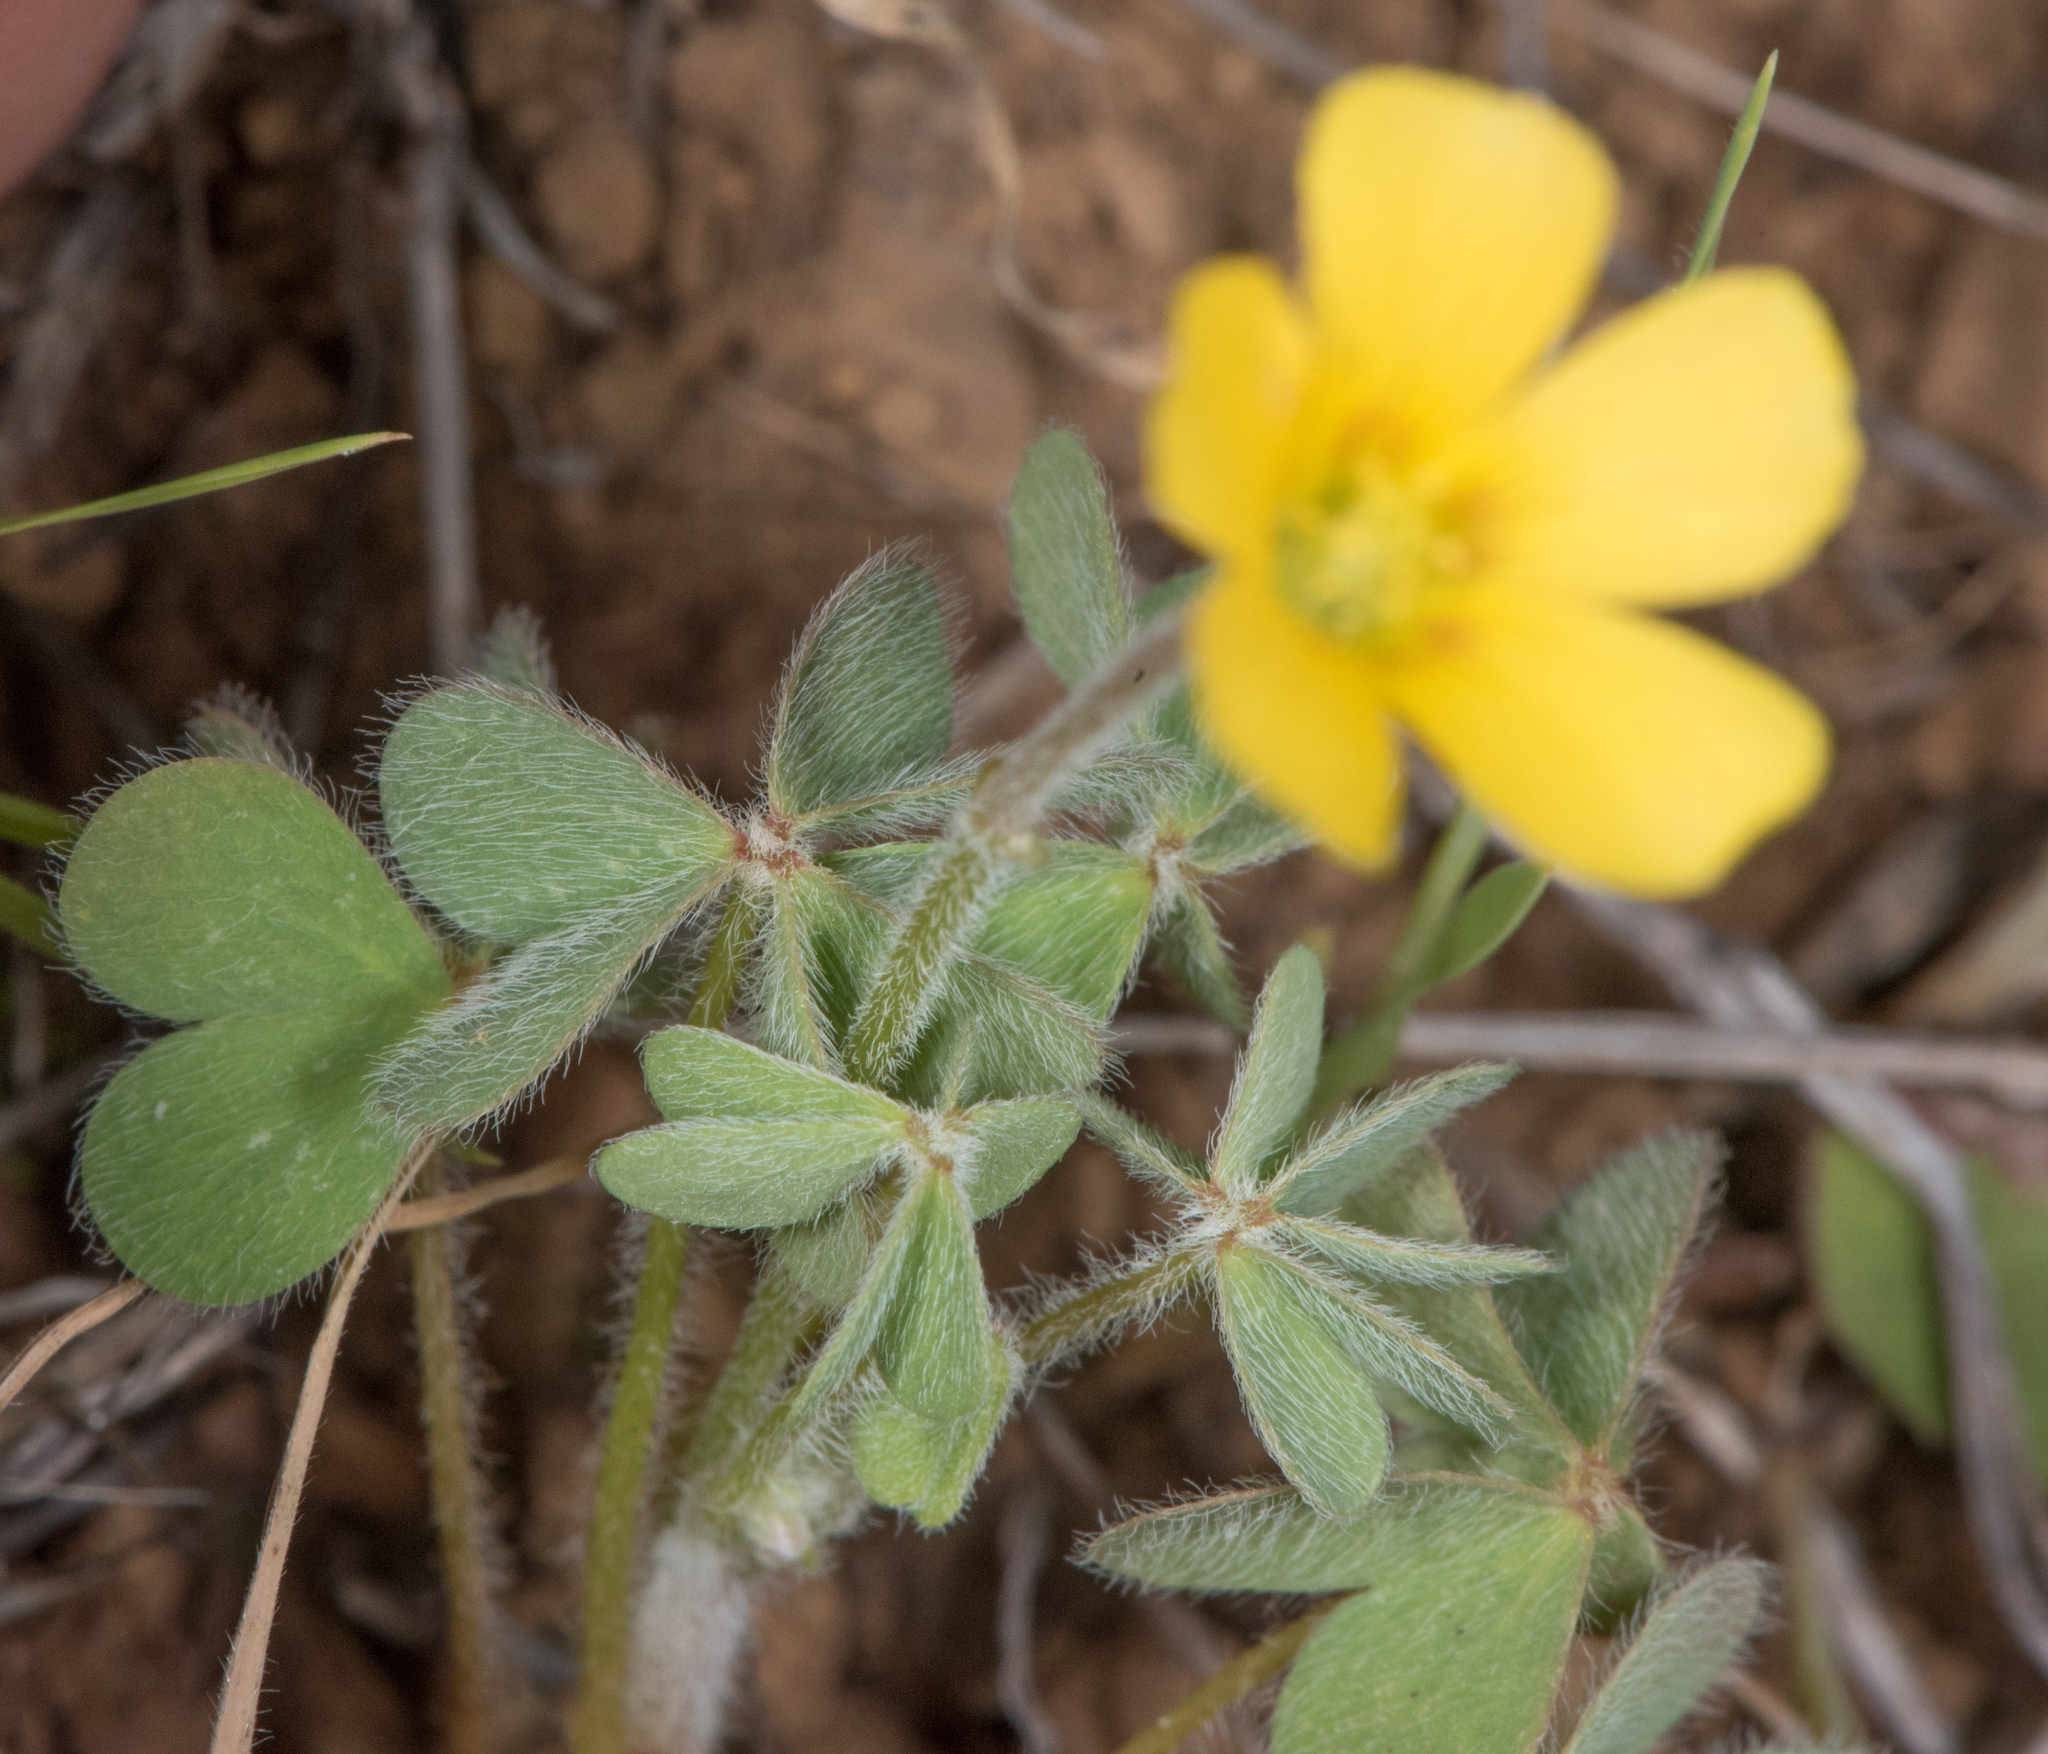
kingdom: Plantae
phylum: Tracheophyta
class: Magnoliopsida
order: Oxalidales
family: Oxalidaceae
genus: Oxalis
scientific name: Oxalis pilosa
